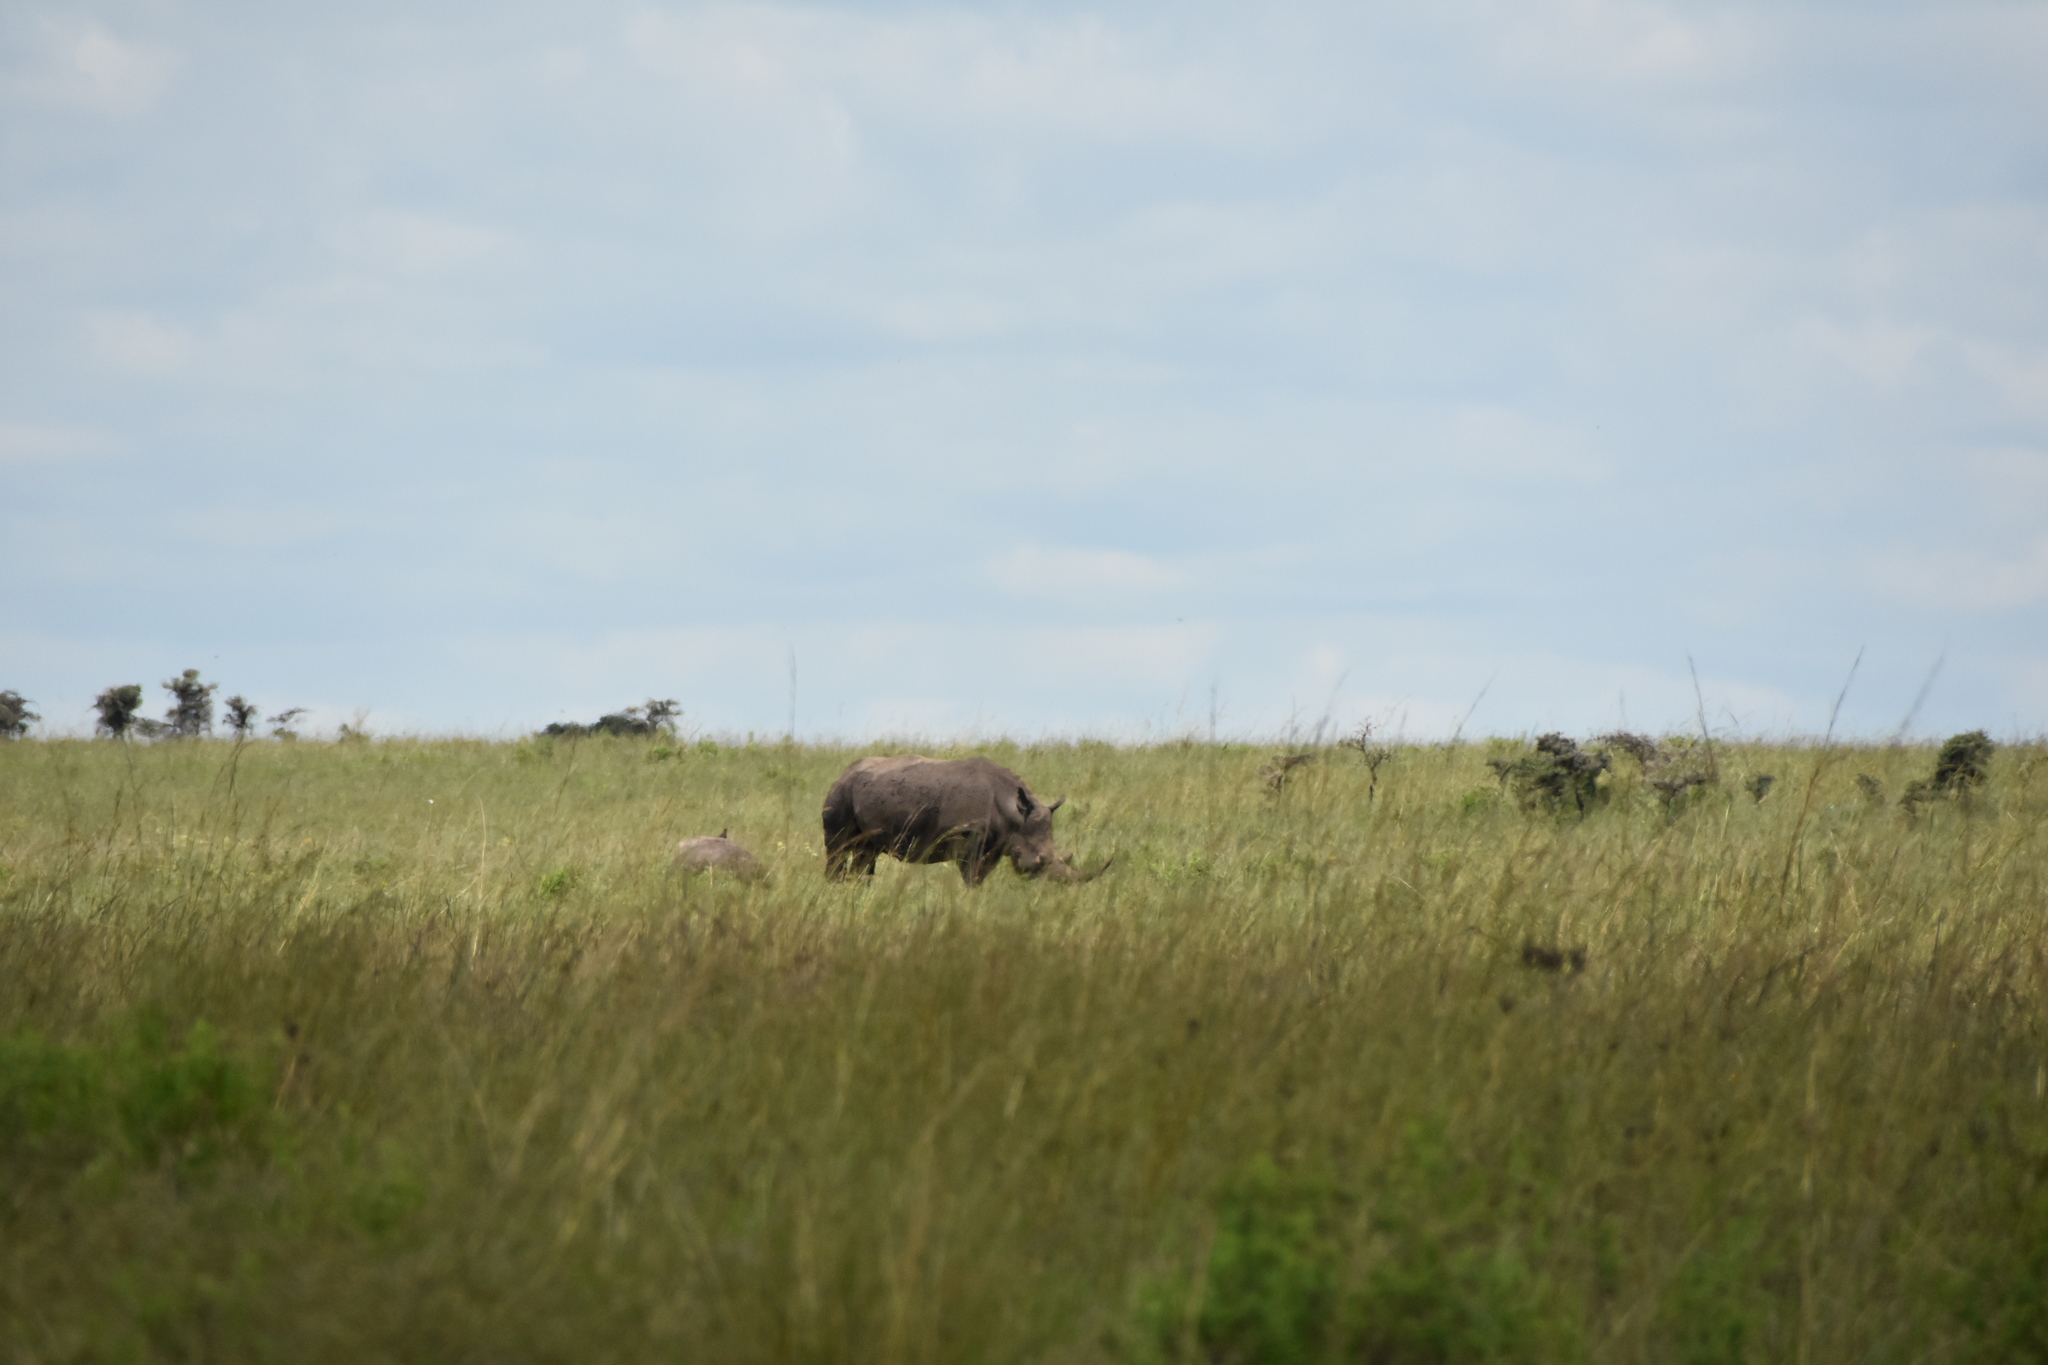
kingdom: Animalia
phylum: Chordata
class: Mammalia
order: Perissodactyla
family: Rhinocerotidae
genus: Ceratotherium
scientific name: Ceratotherium simum
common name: White rhinoceros
